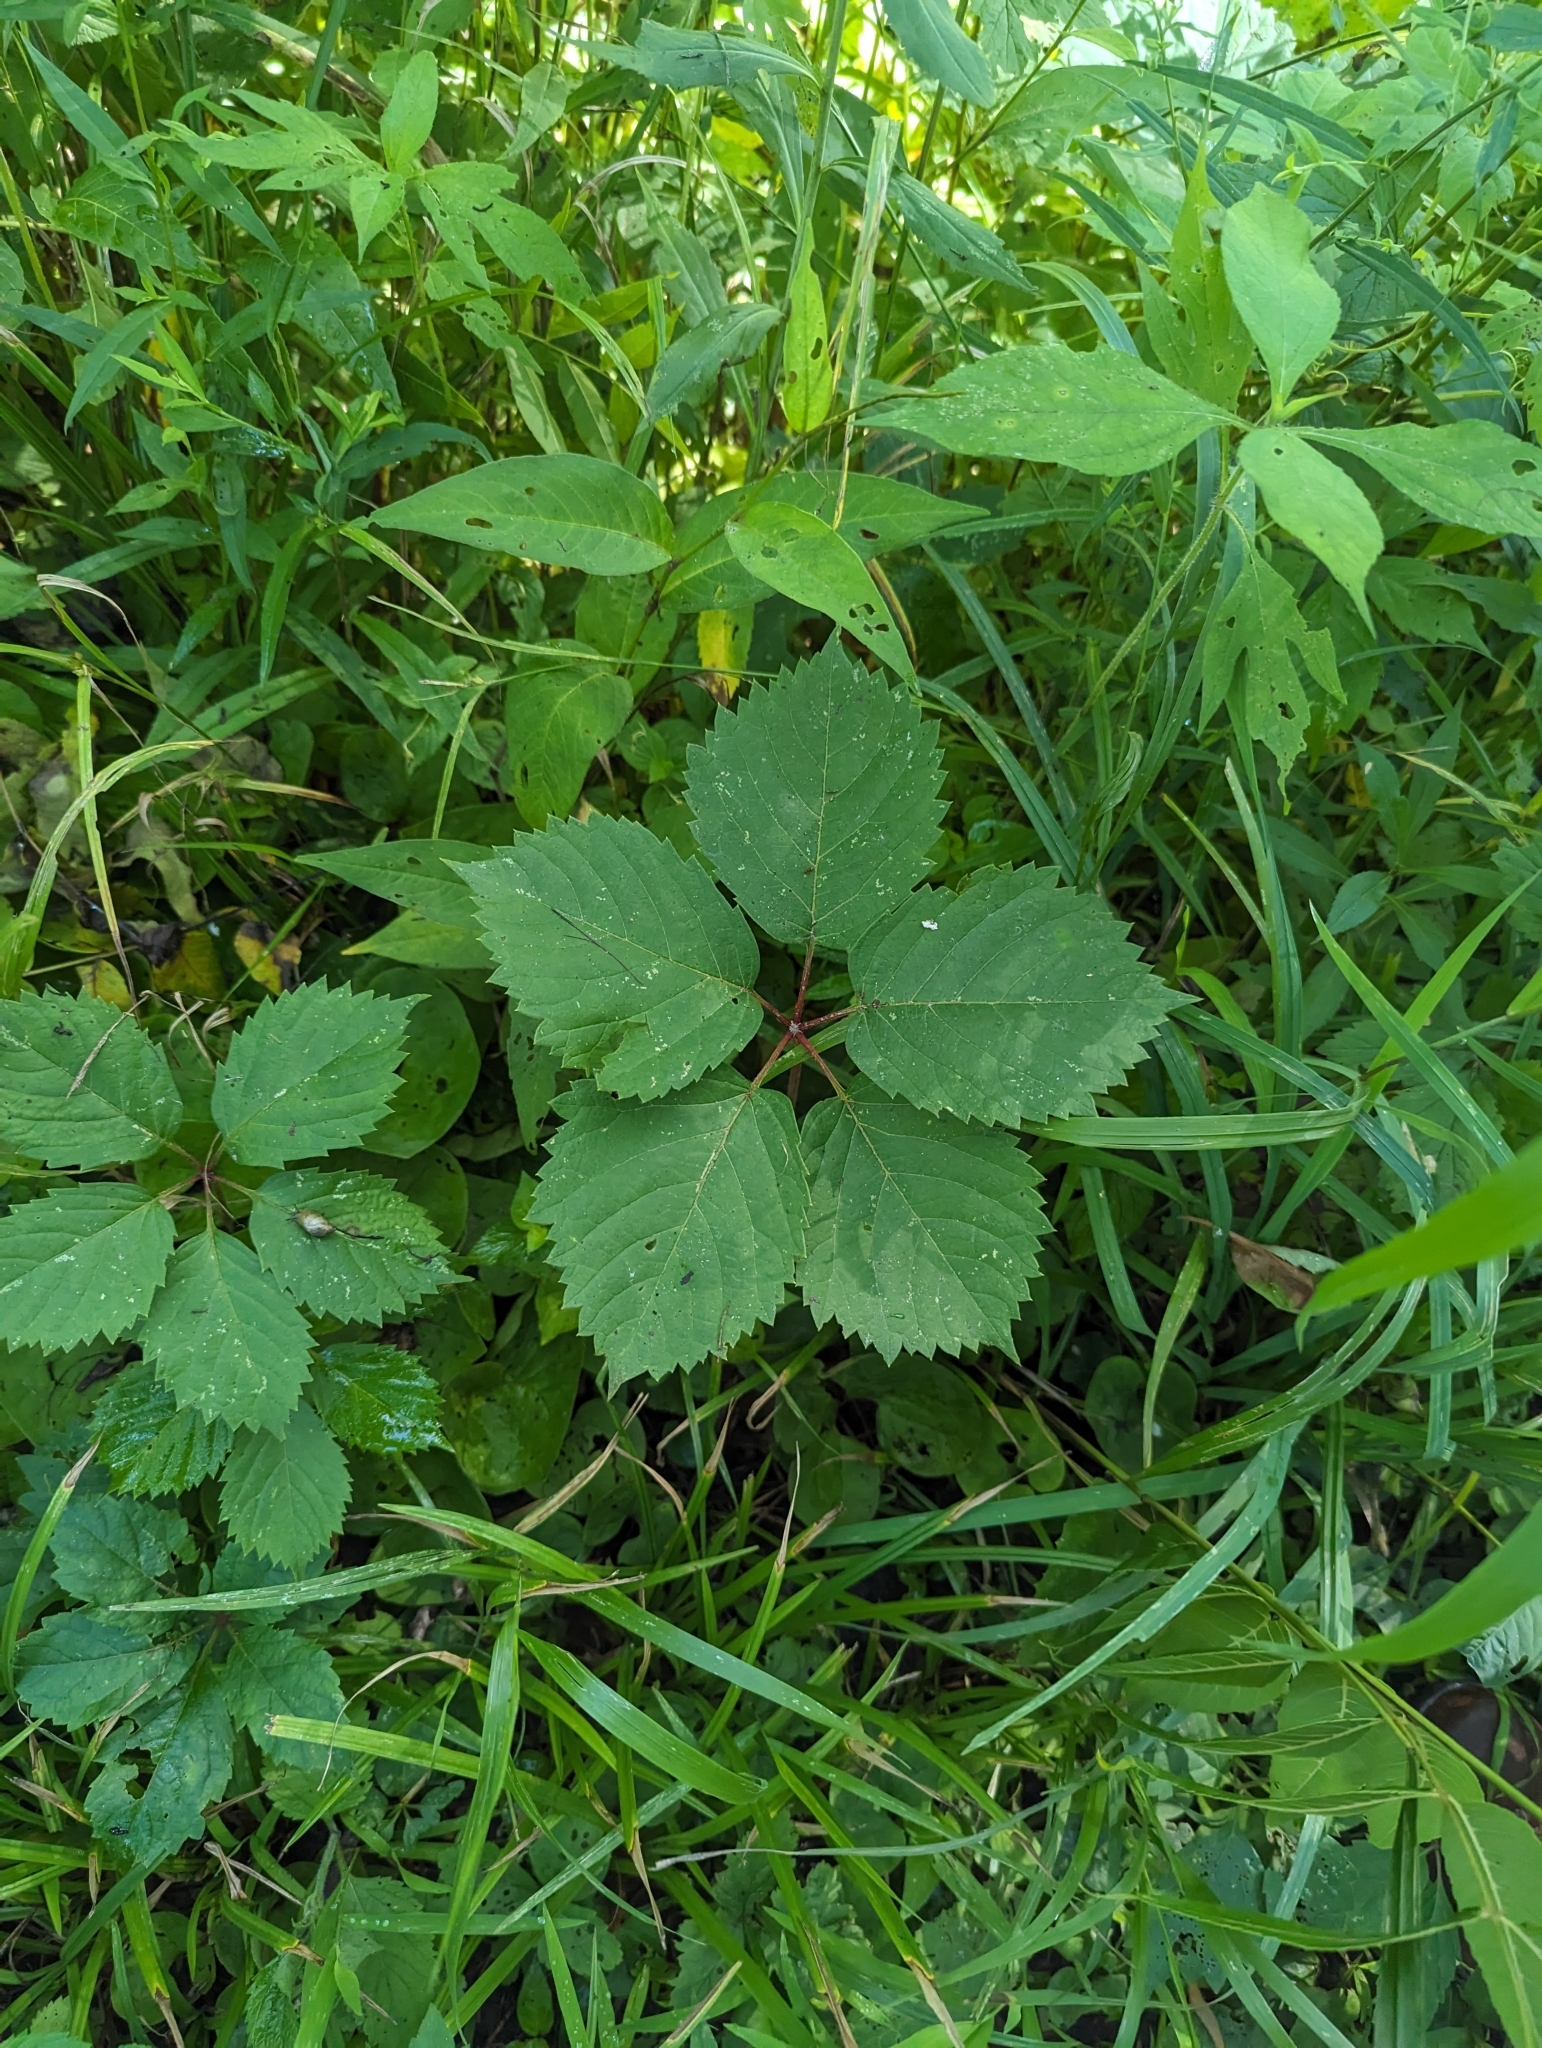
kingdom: Plantae
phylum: Tracheophyta
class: Magnoliopsida
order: Vitales
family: Vitaceae
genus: Parthenocissus
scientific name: Parthenocissus inserta
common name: False virginia-creeper
